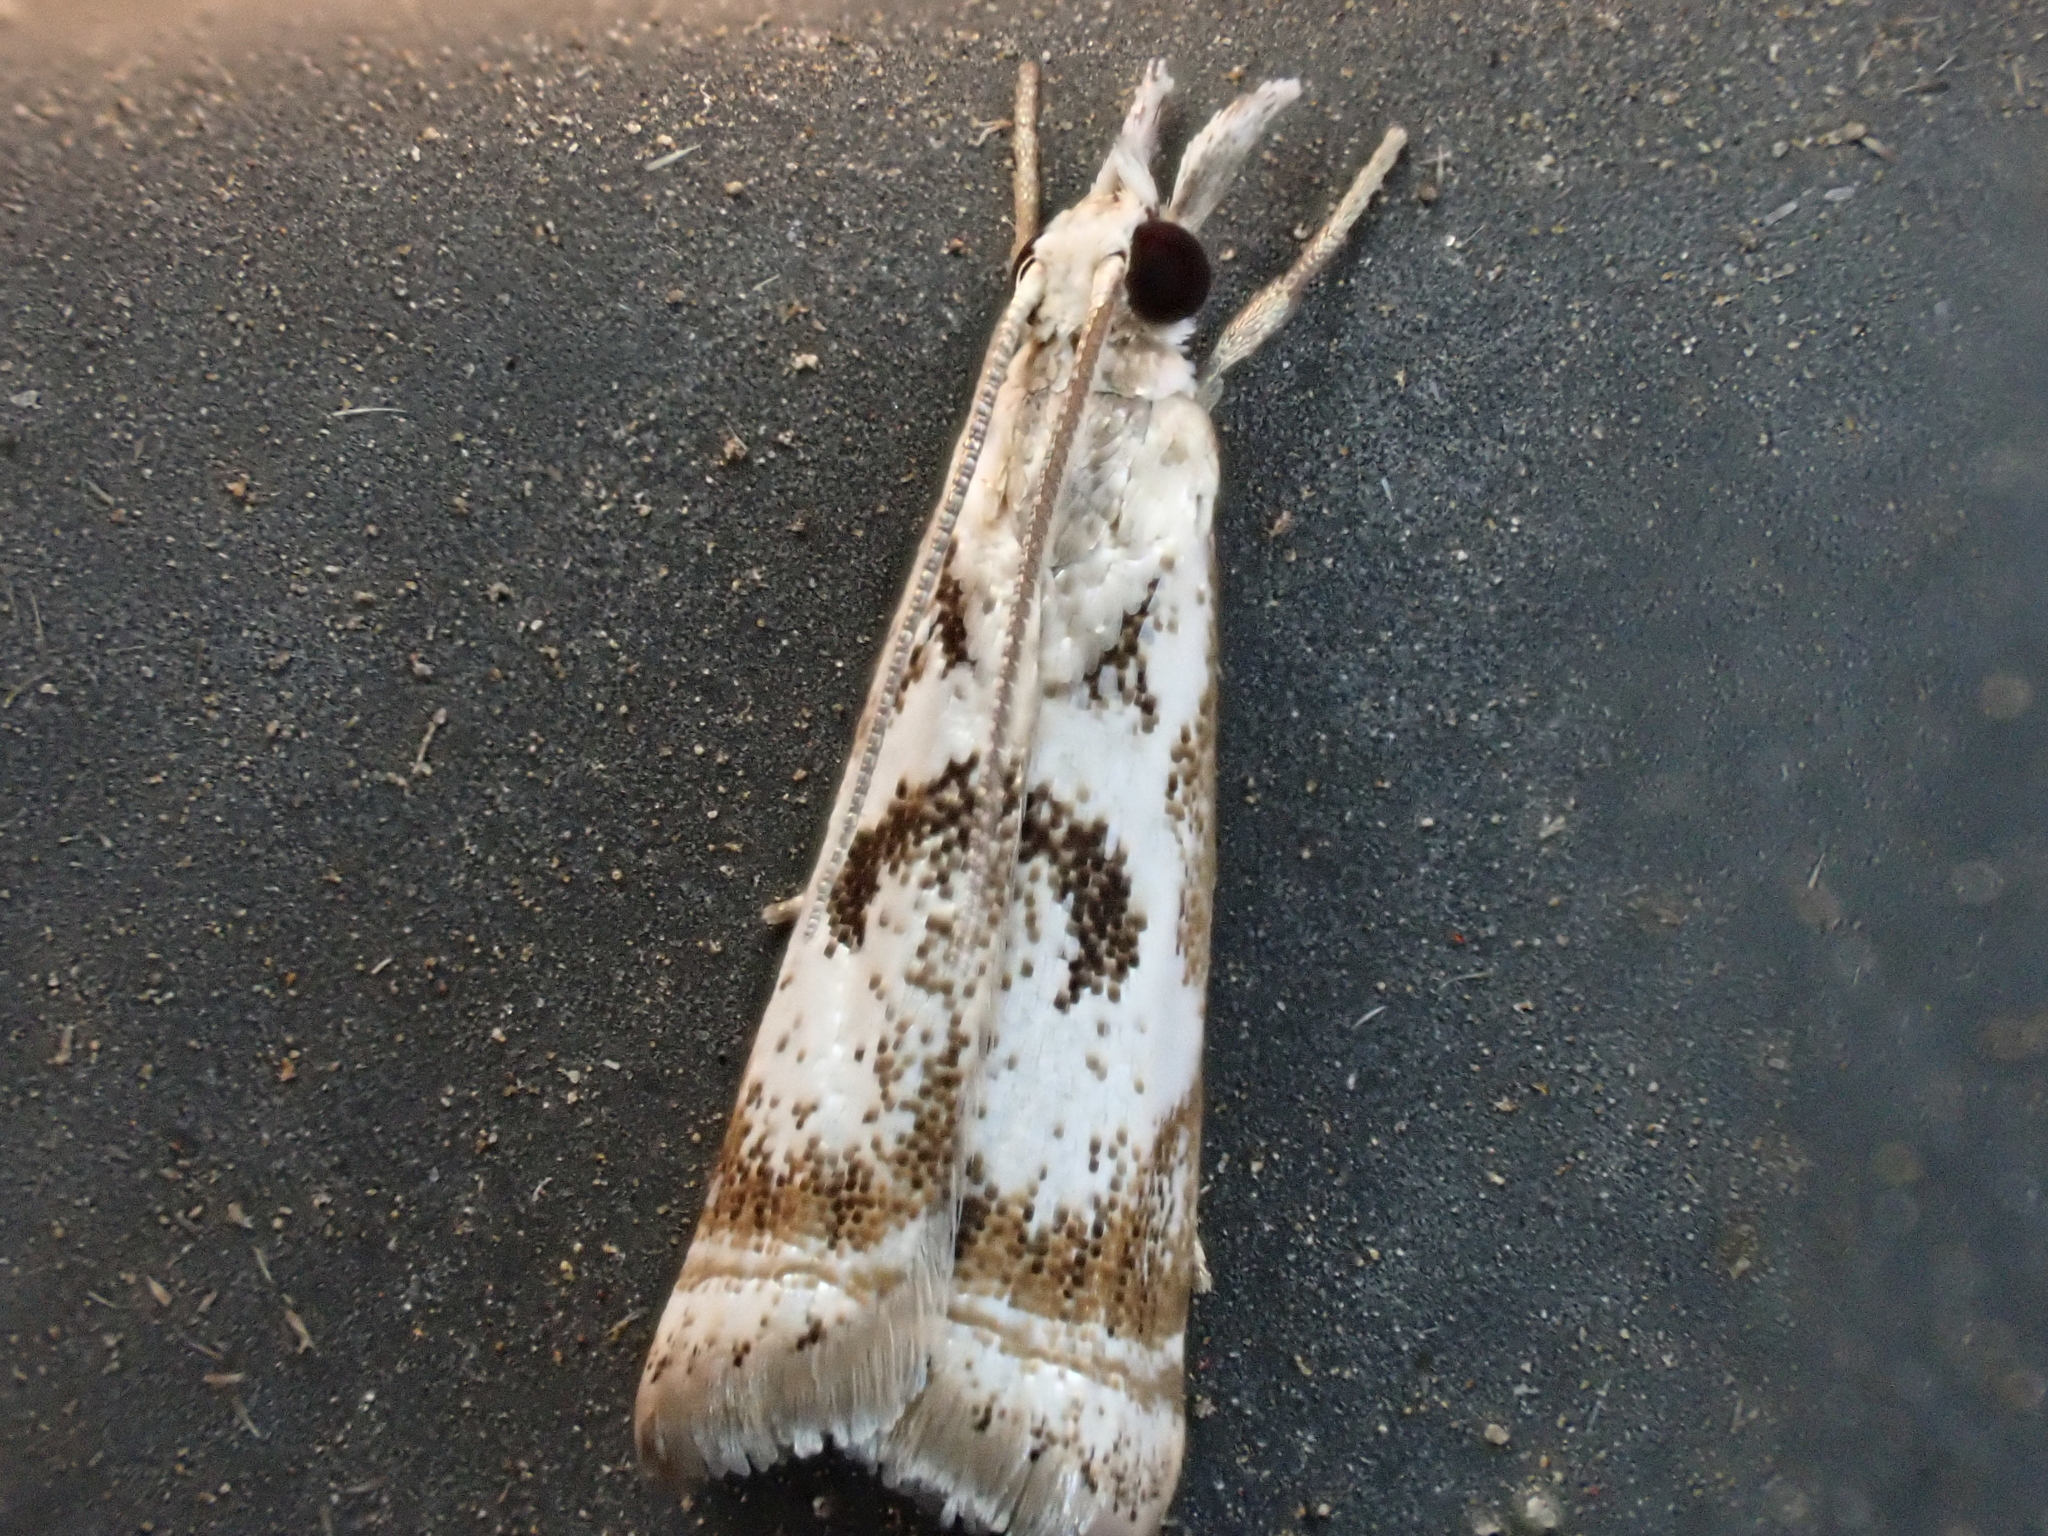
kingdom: Animalia
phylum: Arthropoda
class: Insecta
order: Lepidoptera
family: Crambidae
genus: Microcrambus
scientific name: Microcrambus elegans
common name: Elegant grass-veneer
